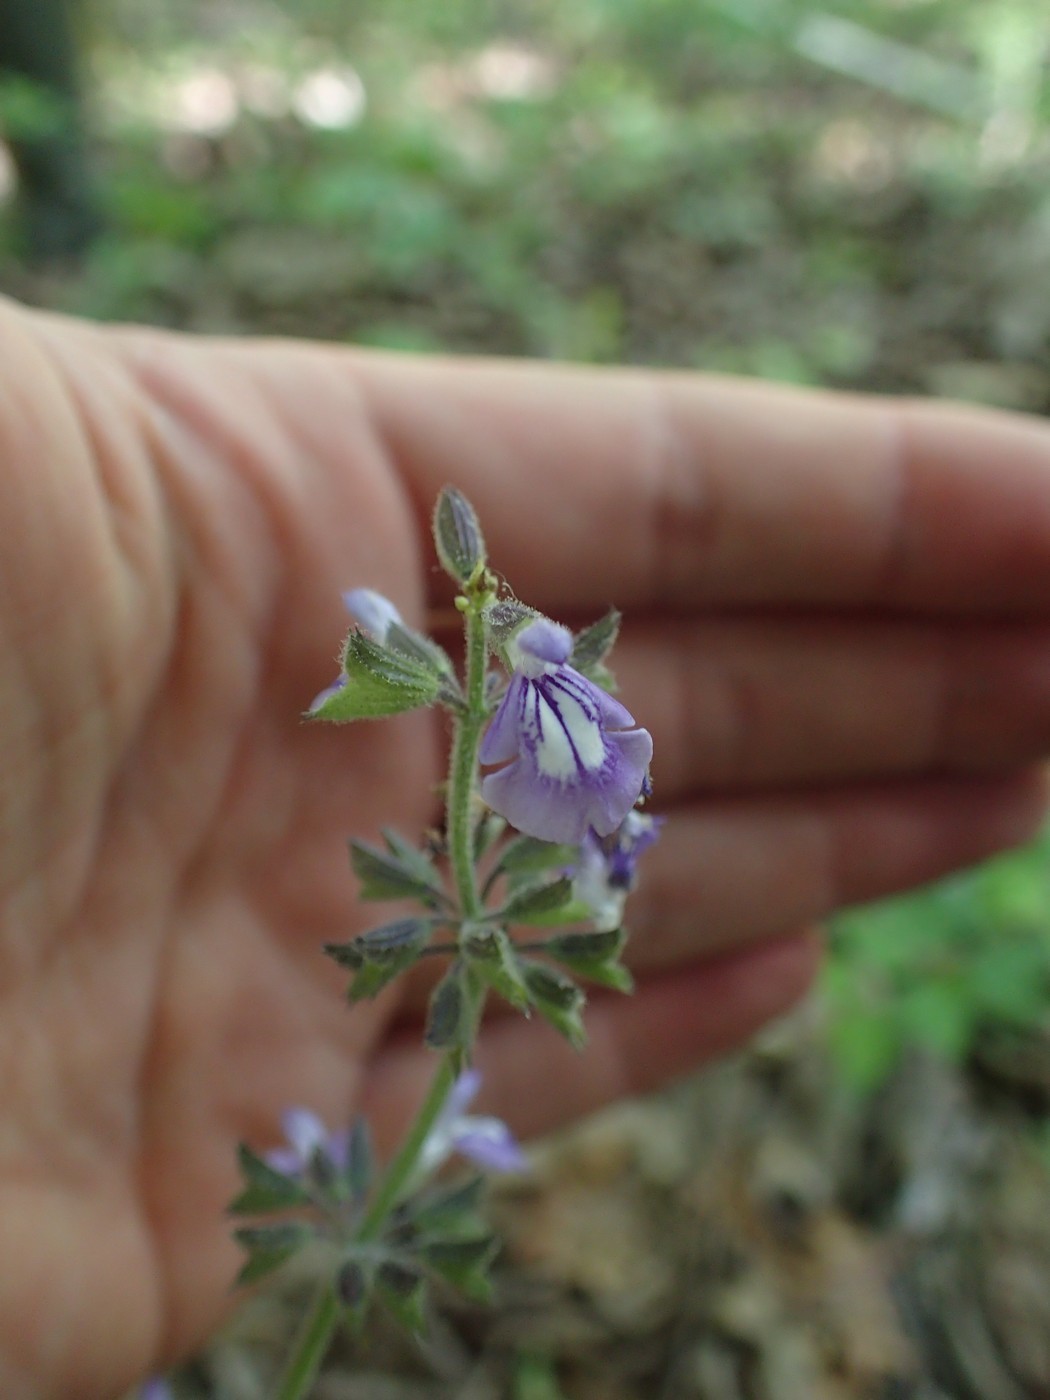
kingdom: Plantae
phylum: Tracheophyta
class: Magnoliopsida
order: Lamiales
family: Lamiaceae
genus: Salvia
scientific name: Salvia urticifolia
